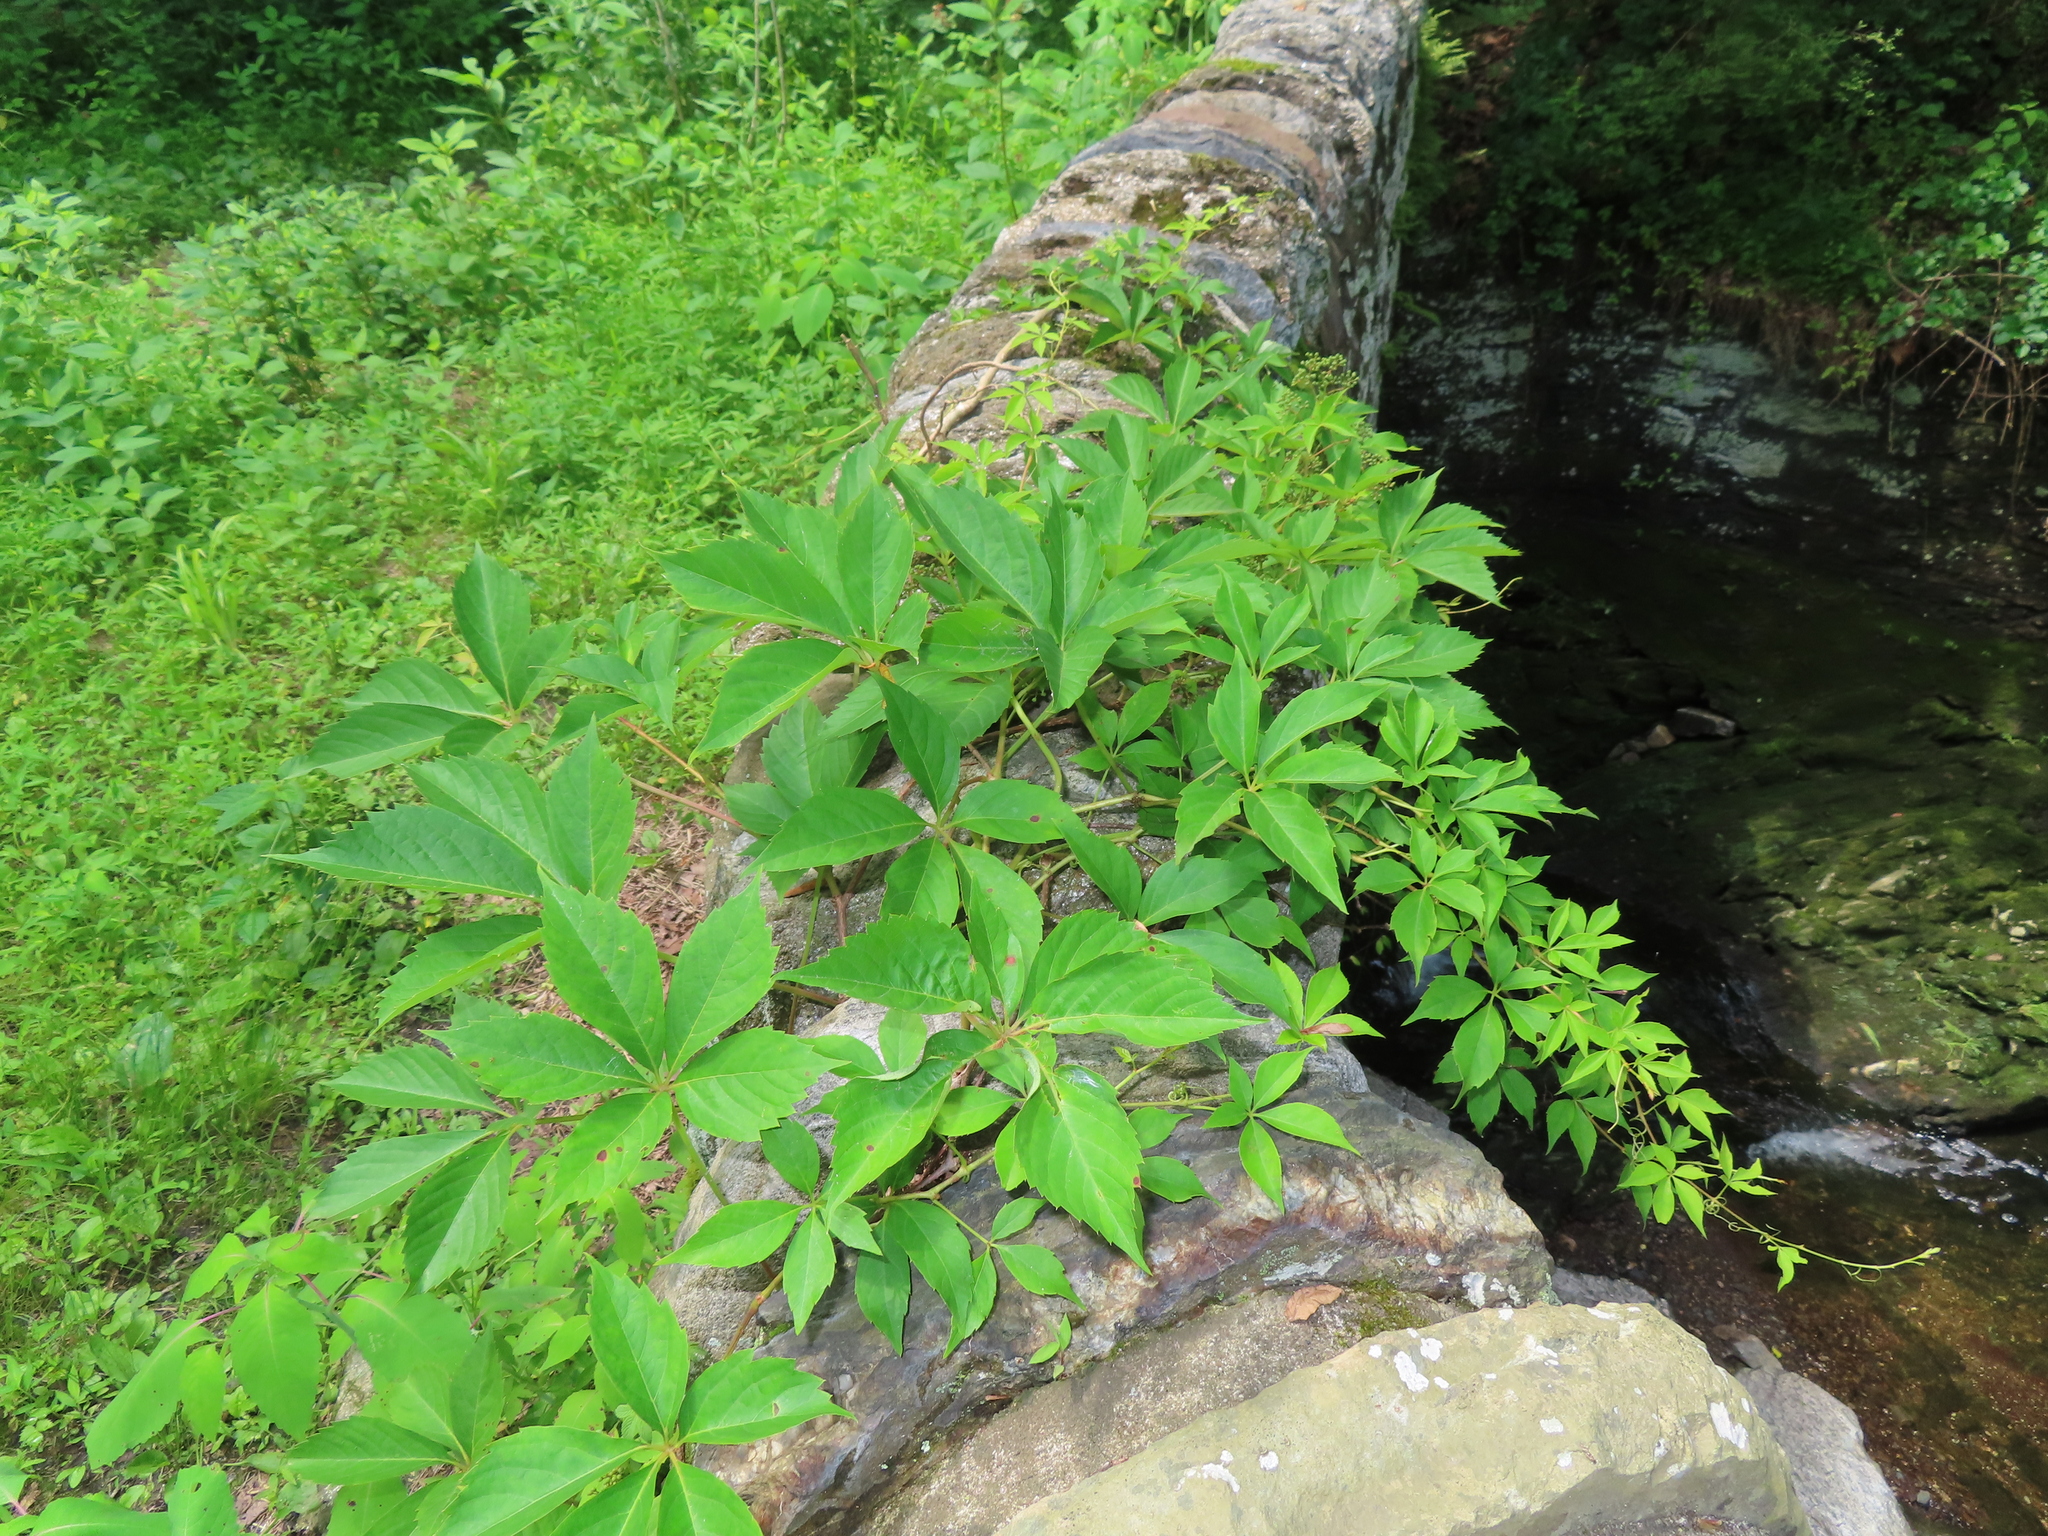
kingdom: Plantae
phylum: Tracheophyta
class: Magnoliopsida
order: Vitales
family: Vitaceae
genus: Parthenocissus
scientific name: Parthenocissus quinquefolia
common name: Virginia-creeper
